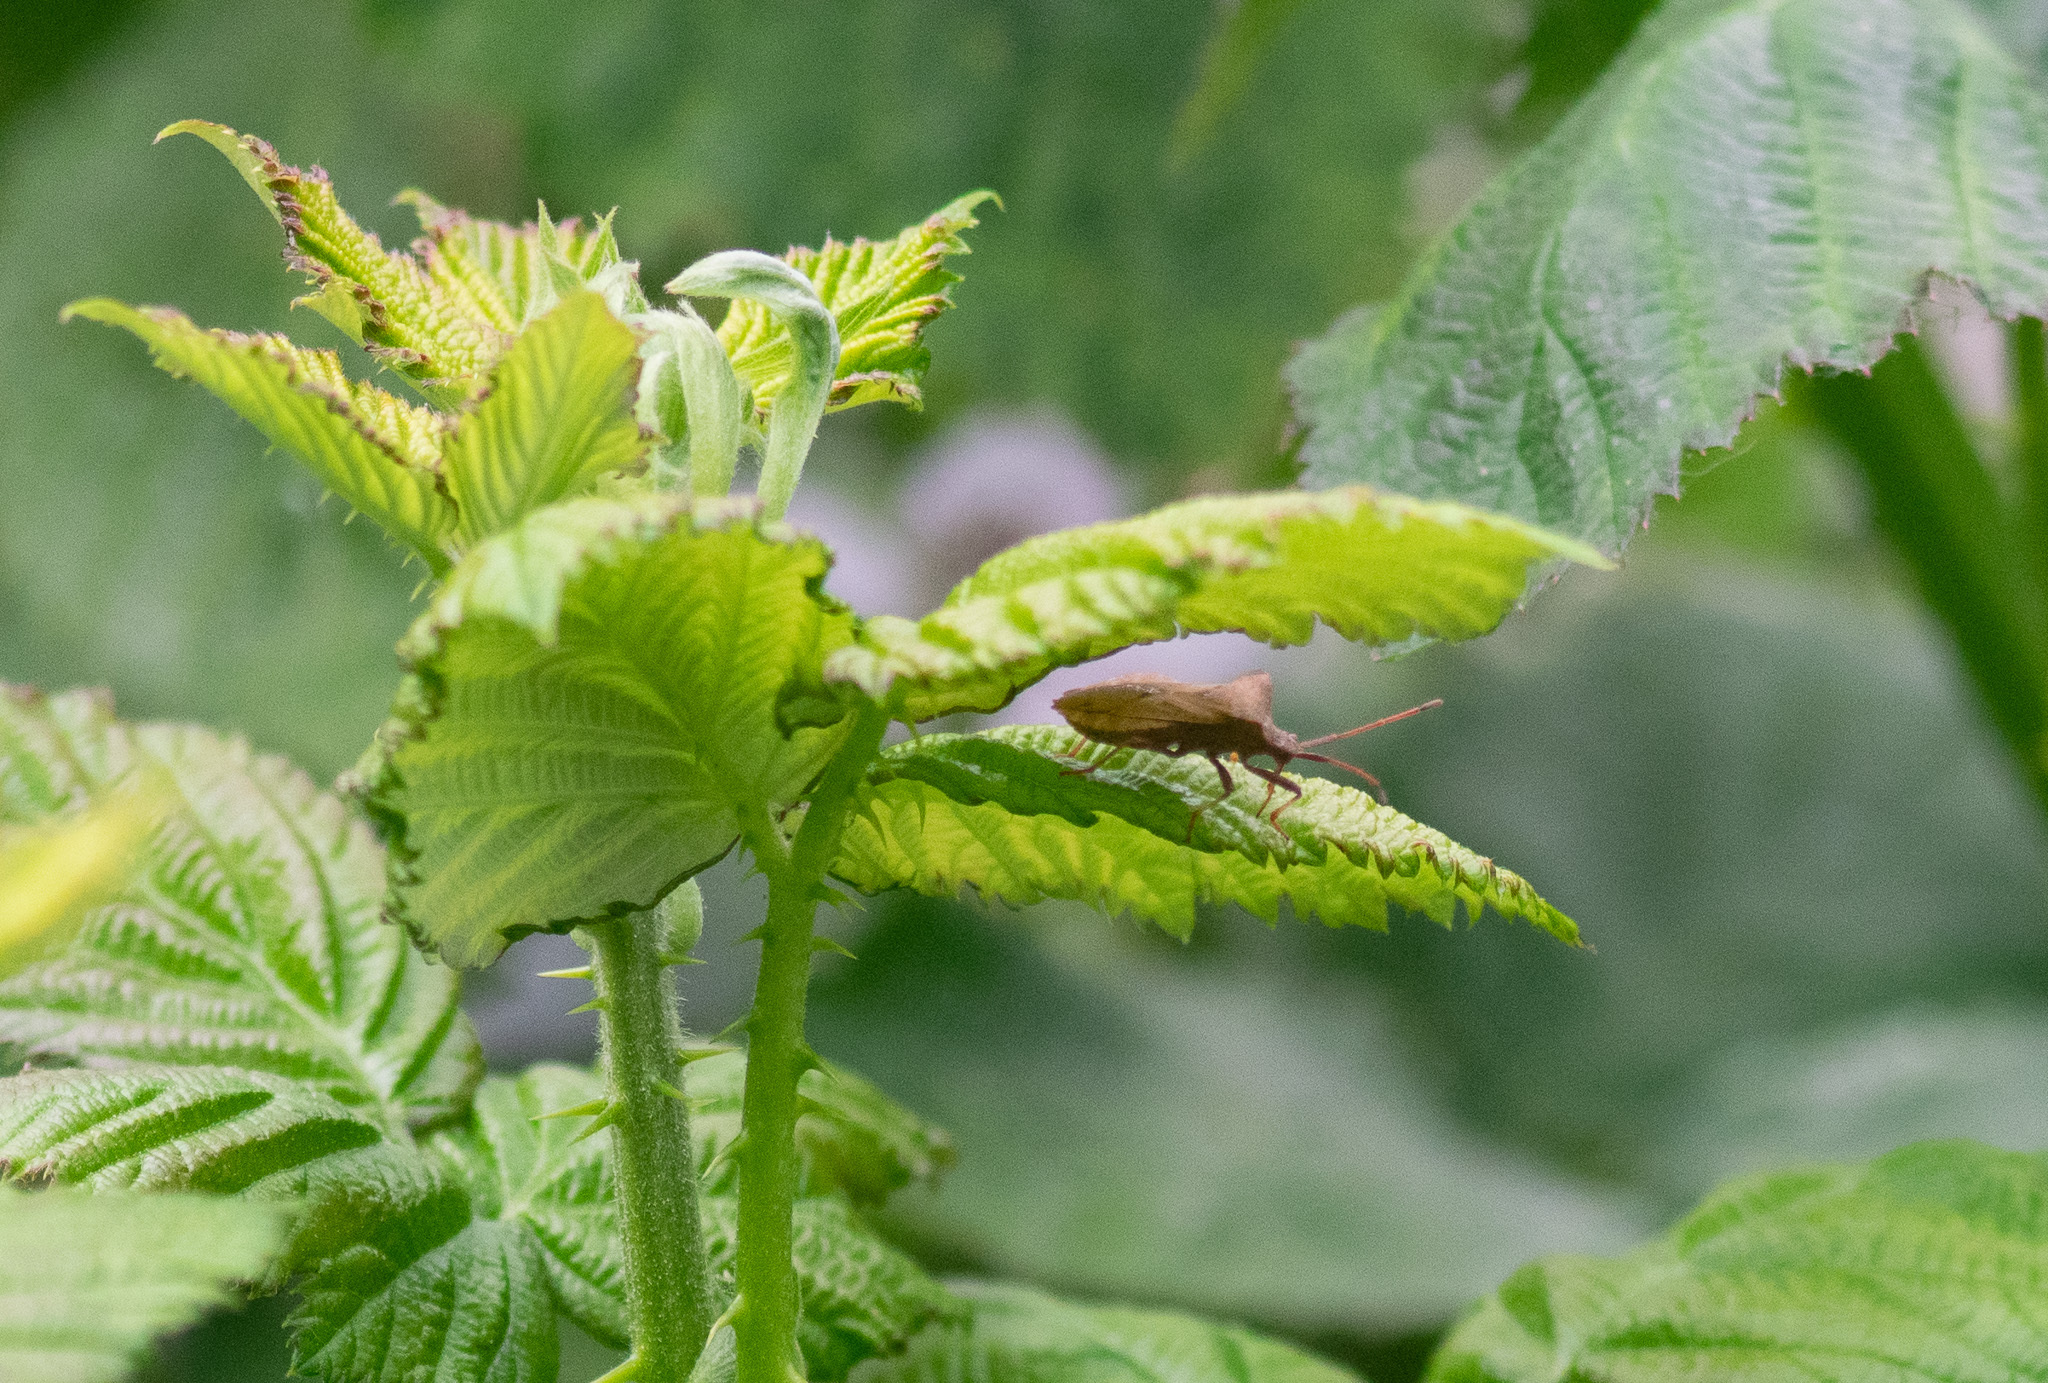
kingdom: Animalia
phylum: Arthropoda
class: Insecta
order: Hemiptera
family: Coreidae
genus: Coreus
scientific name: Coreus marginatus
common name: Dock bug
